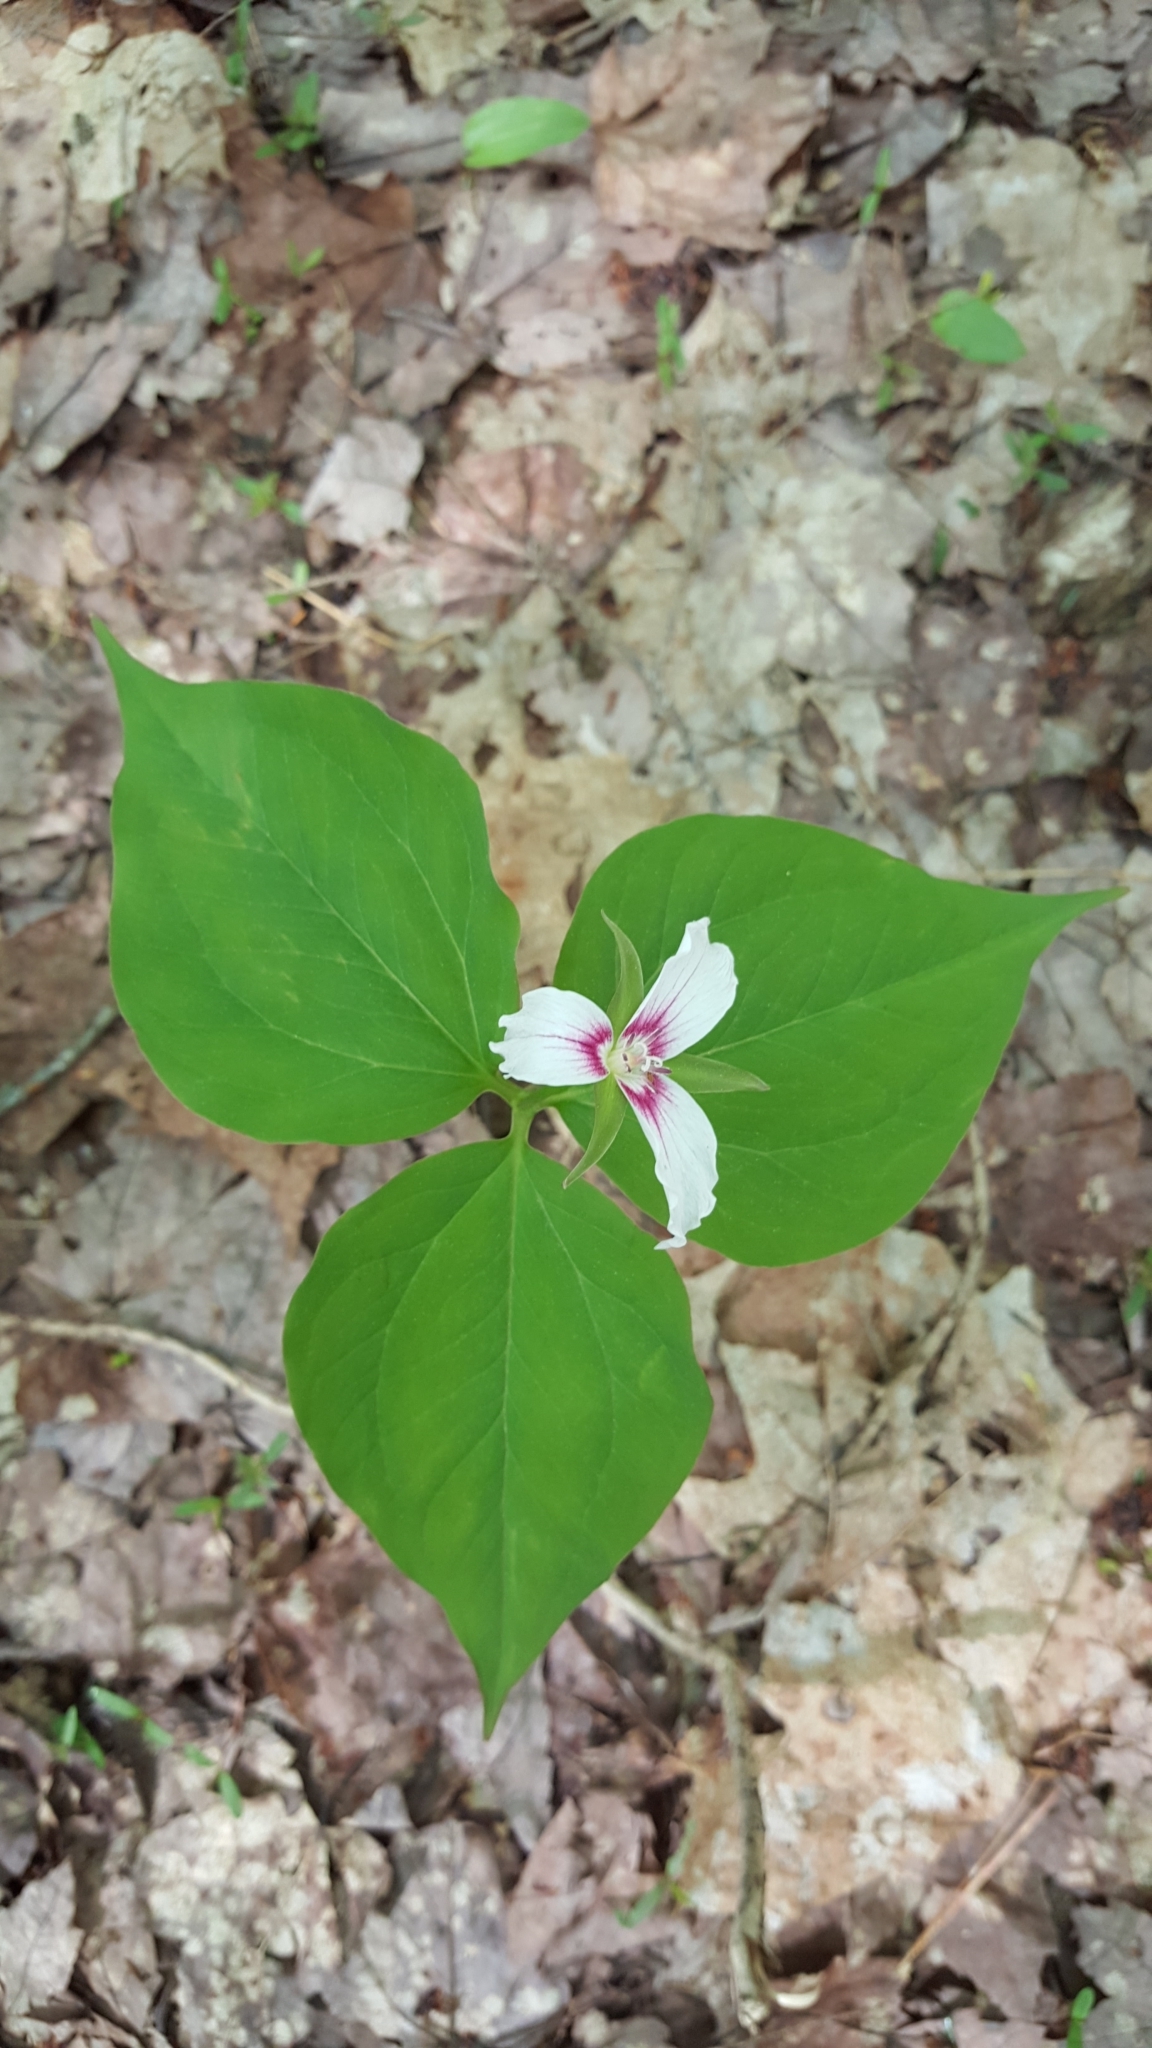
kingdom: Plantae
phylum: Tracheophyta
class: Liliopsida
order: Liliales
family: Melanthiaceae
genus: Trillium
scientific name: Trillium undulatum
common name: Paint trillium
